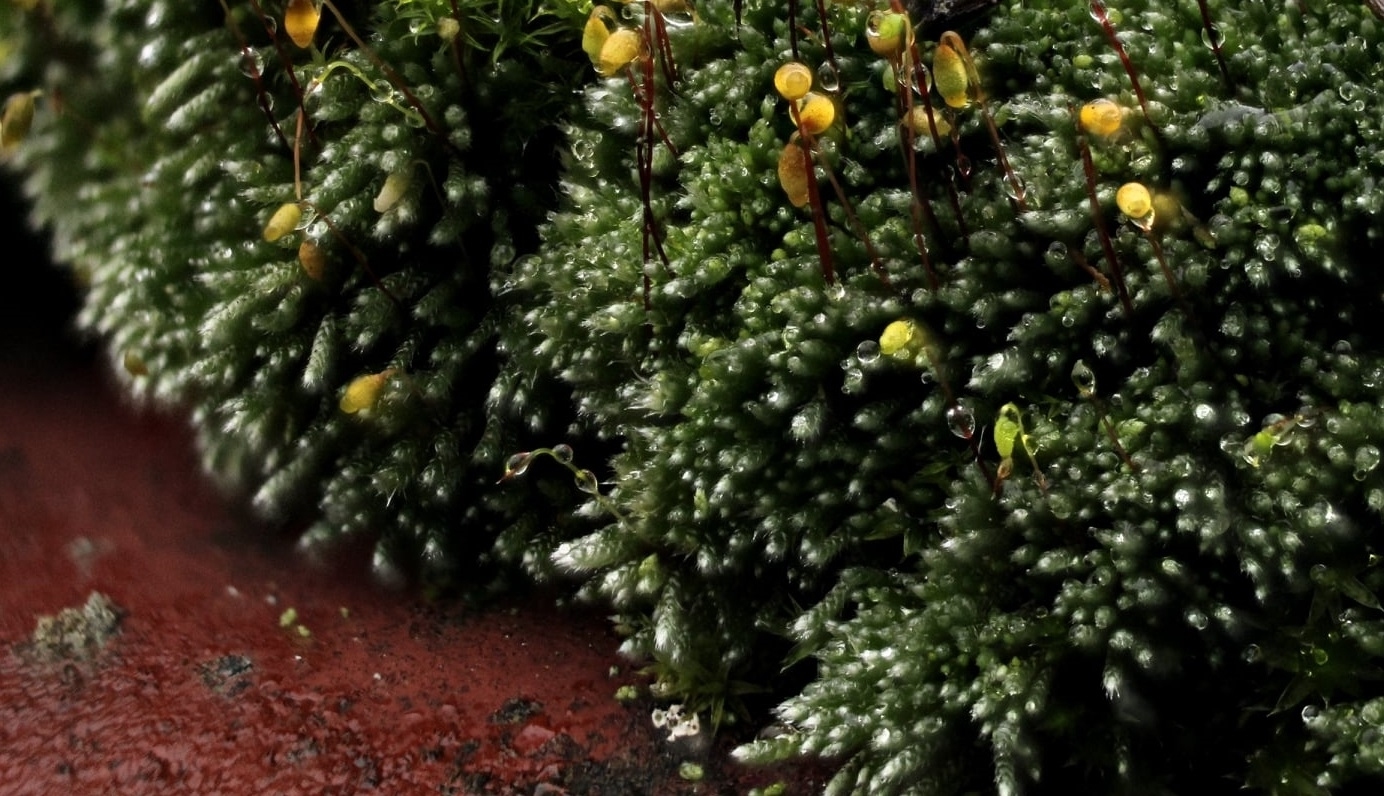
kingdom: Plantae
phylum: Bryophyta
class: Bryopsida
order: Bryales
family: Bryaceae
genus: Bryum
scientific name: Bryum argenteum
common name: Silver-moss
